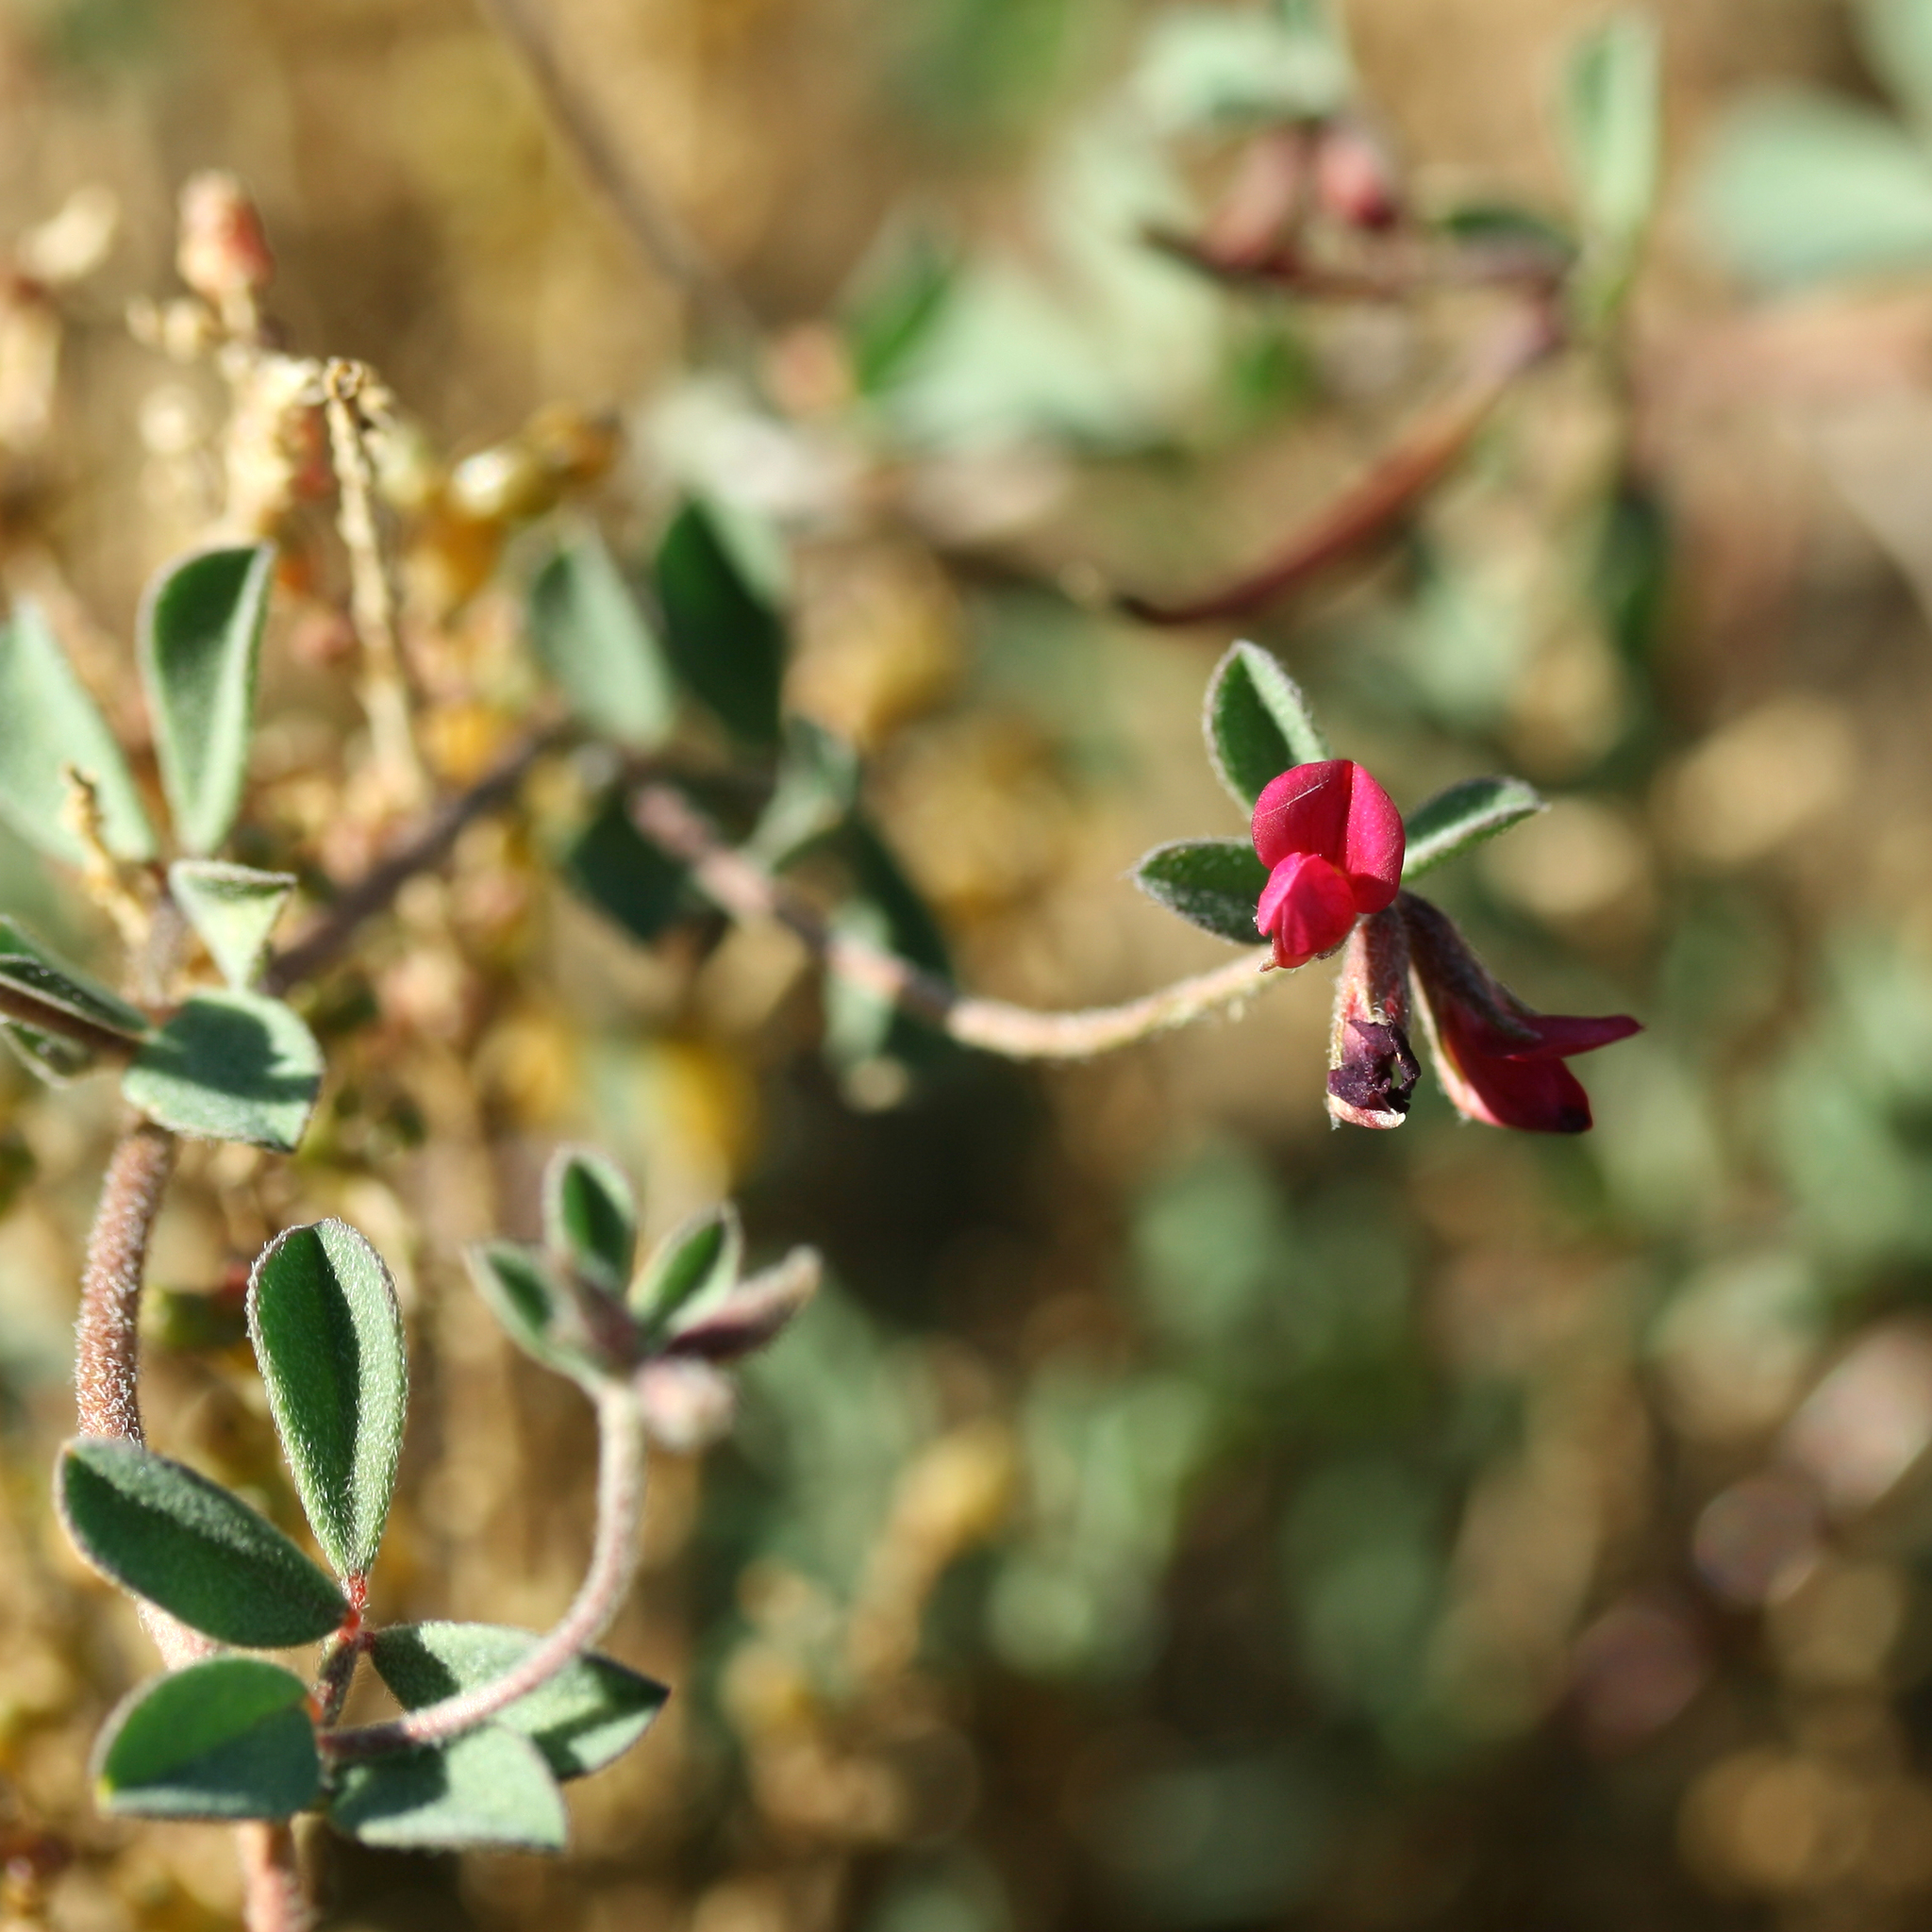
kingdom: Plantae
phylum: Tracheophyta
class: Magnoliopsida
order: Fabales
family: Fabaceae
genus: Lotus
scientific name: Lotus cruentus
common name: Red bird's-foot trefoil
